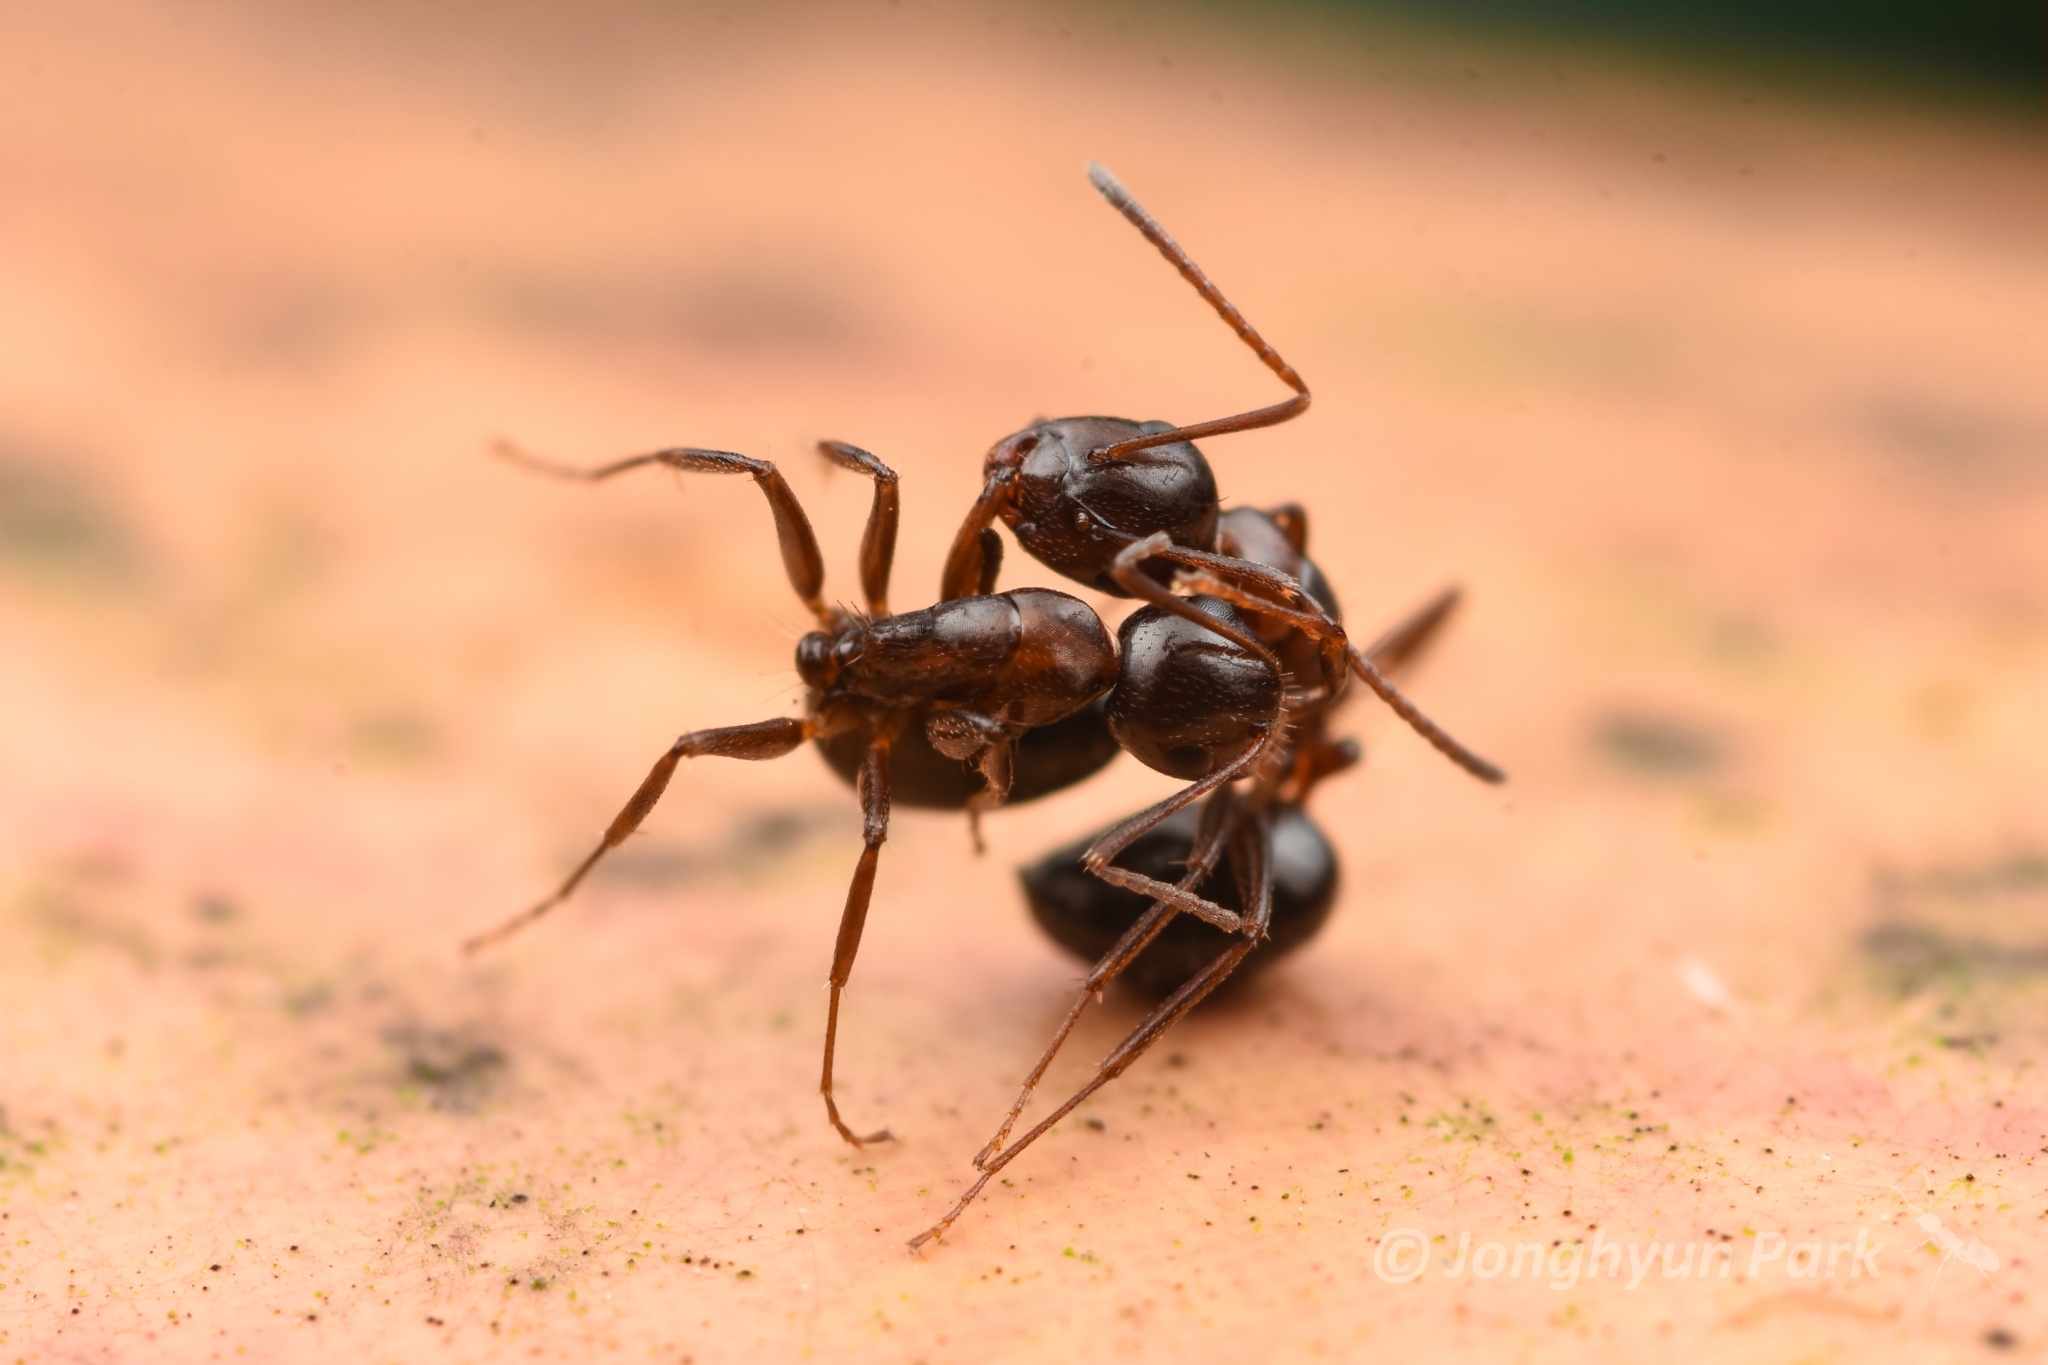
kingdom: Animalia
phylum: Arthropoda
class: Insecta
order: Hymenoptera
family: Formicidae
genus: Camponotus
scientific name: Camponotus vitiosus
